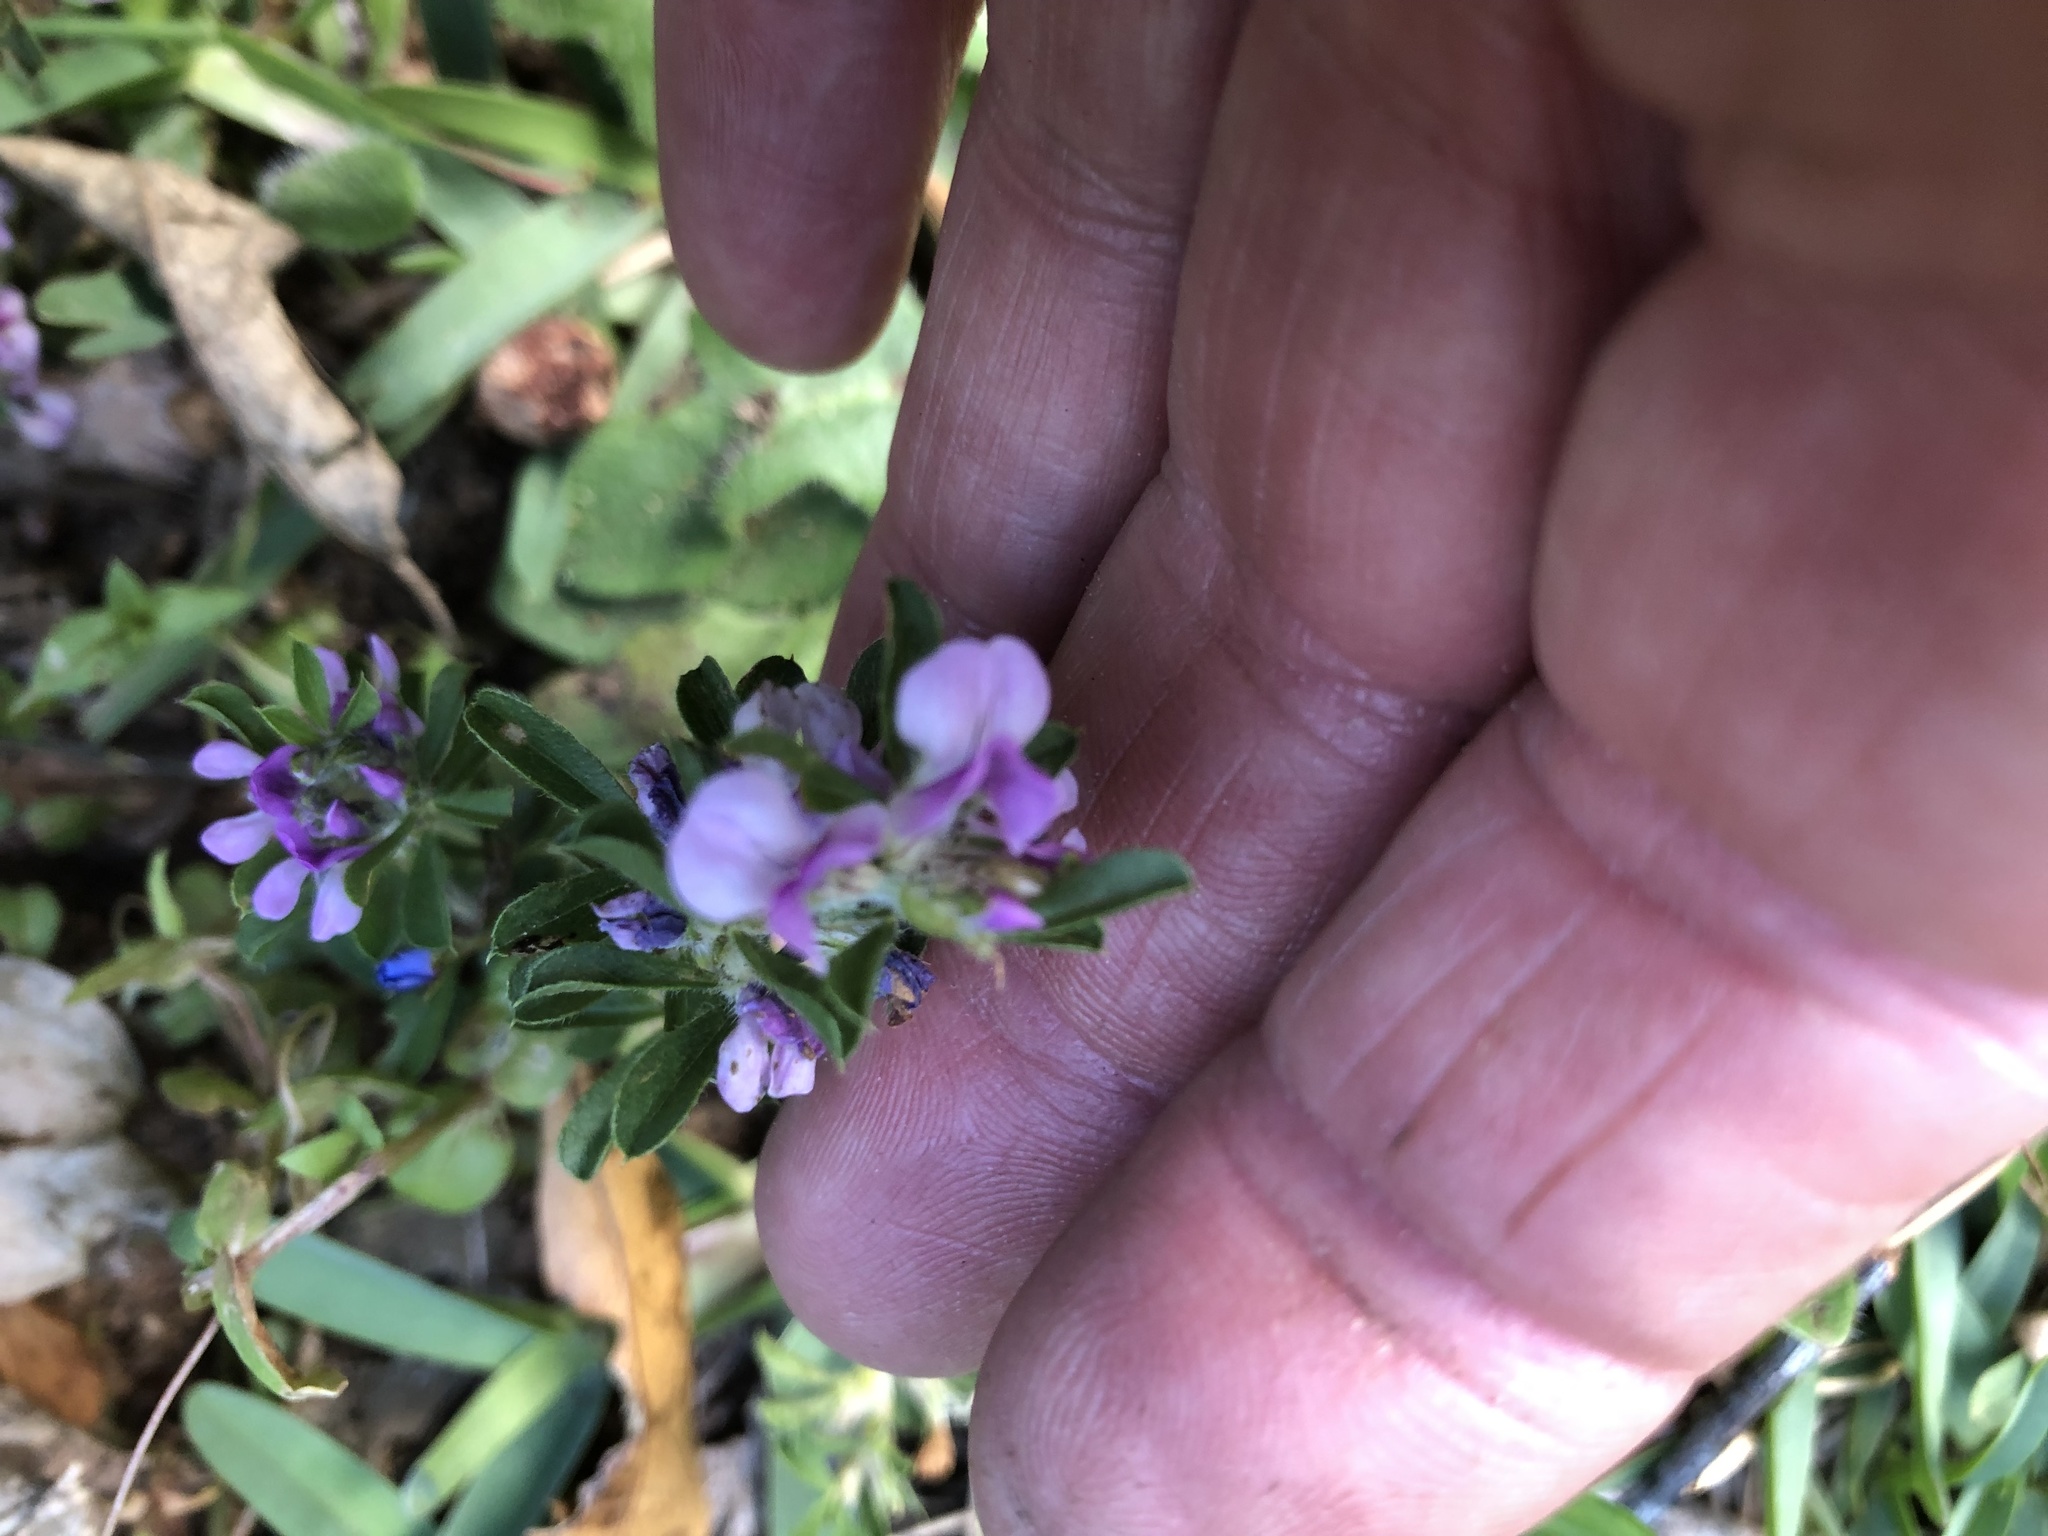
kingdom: Plantae
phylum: Tracheophyta
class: Magnoliopsida
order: Fabales
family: Fabaceae
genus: Psoralea
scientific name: Psoralea
